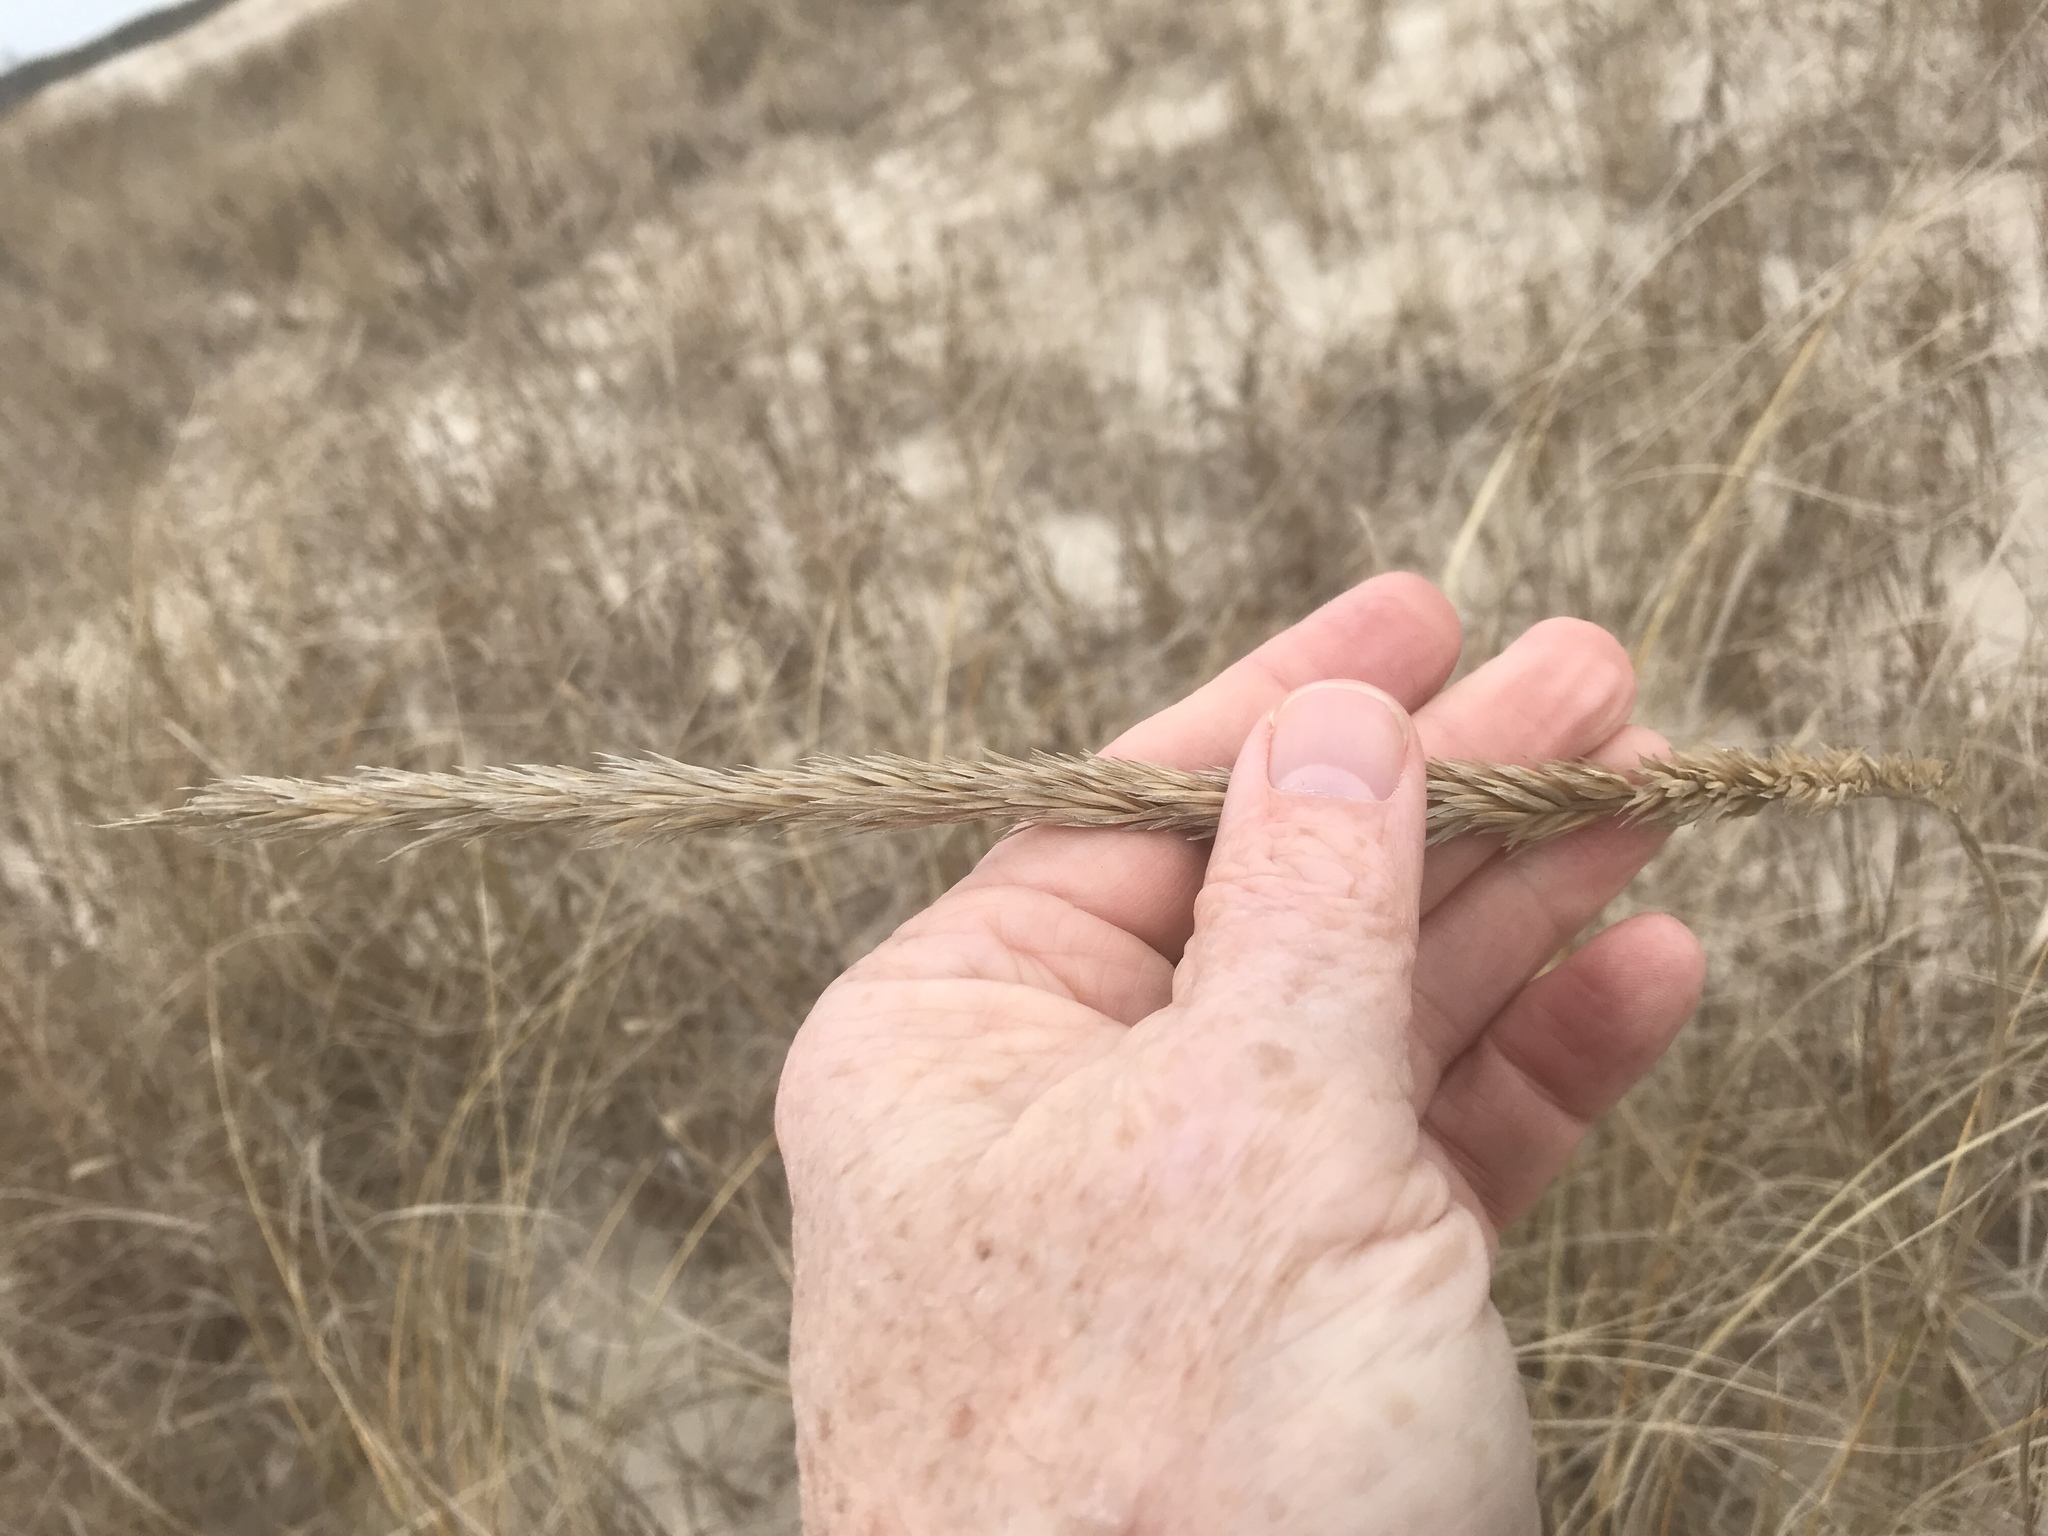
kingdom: Plantae
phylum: Tracheophyta
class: Liliopsida
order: Poales
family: Poaceae
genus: Calamagrostis
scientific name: Calamagrostis breviligulata
